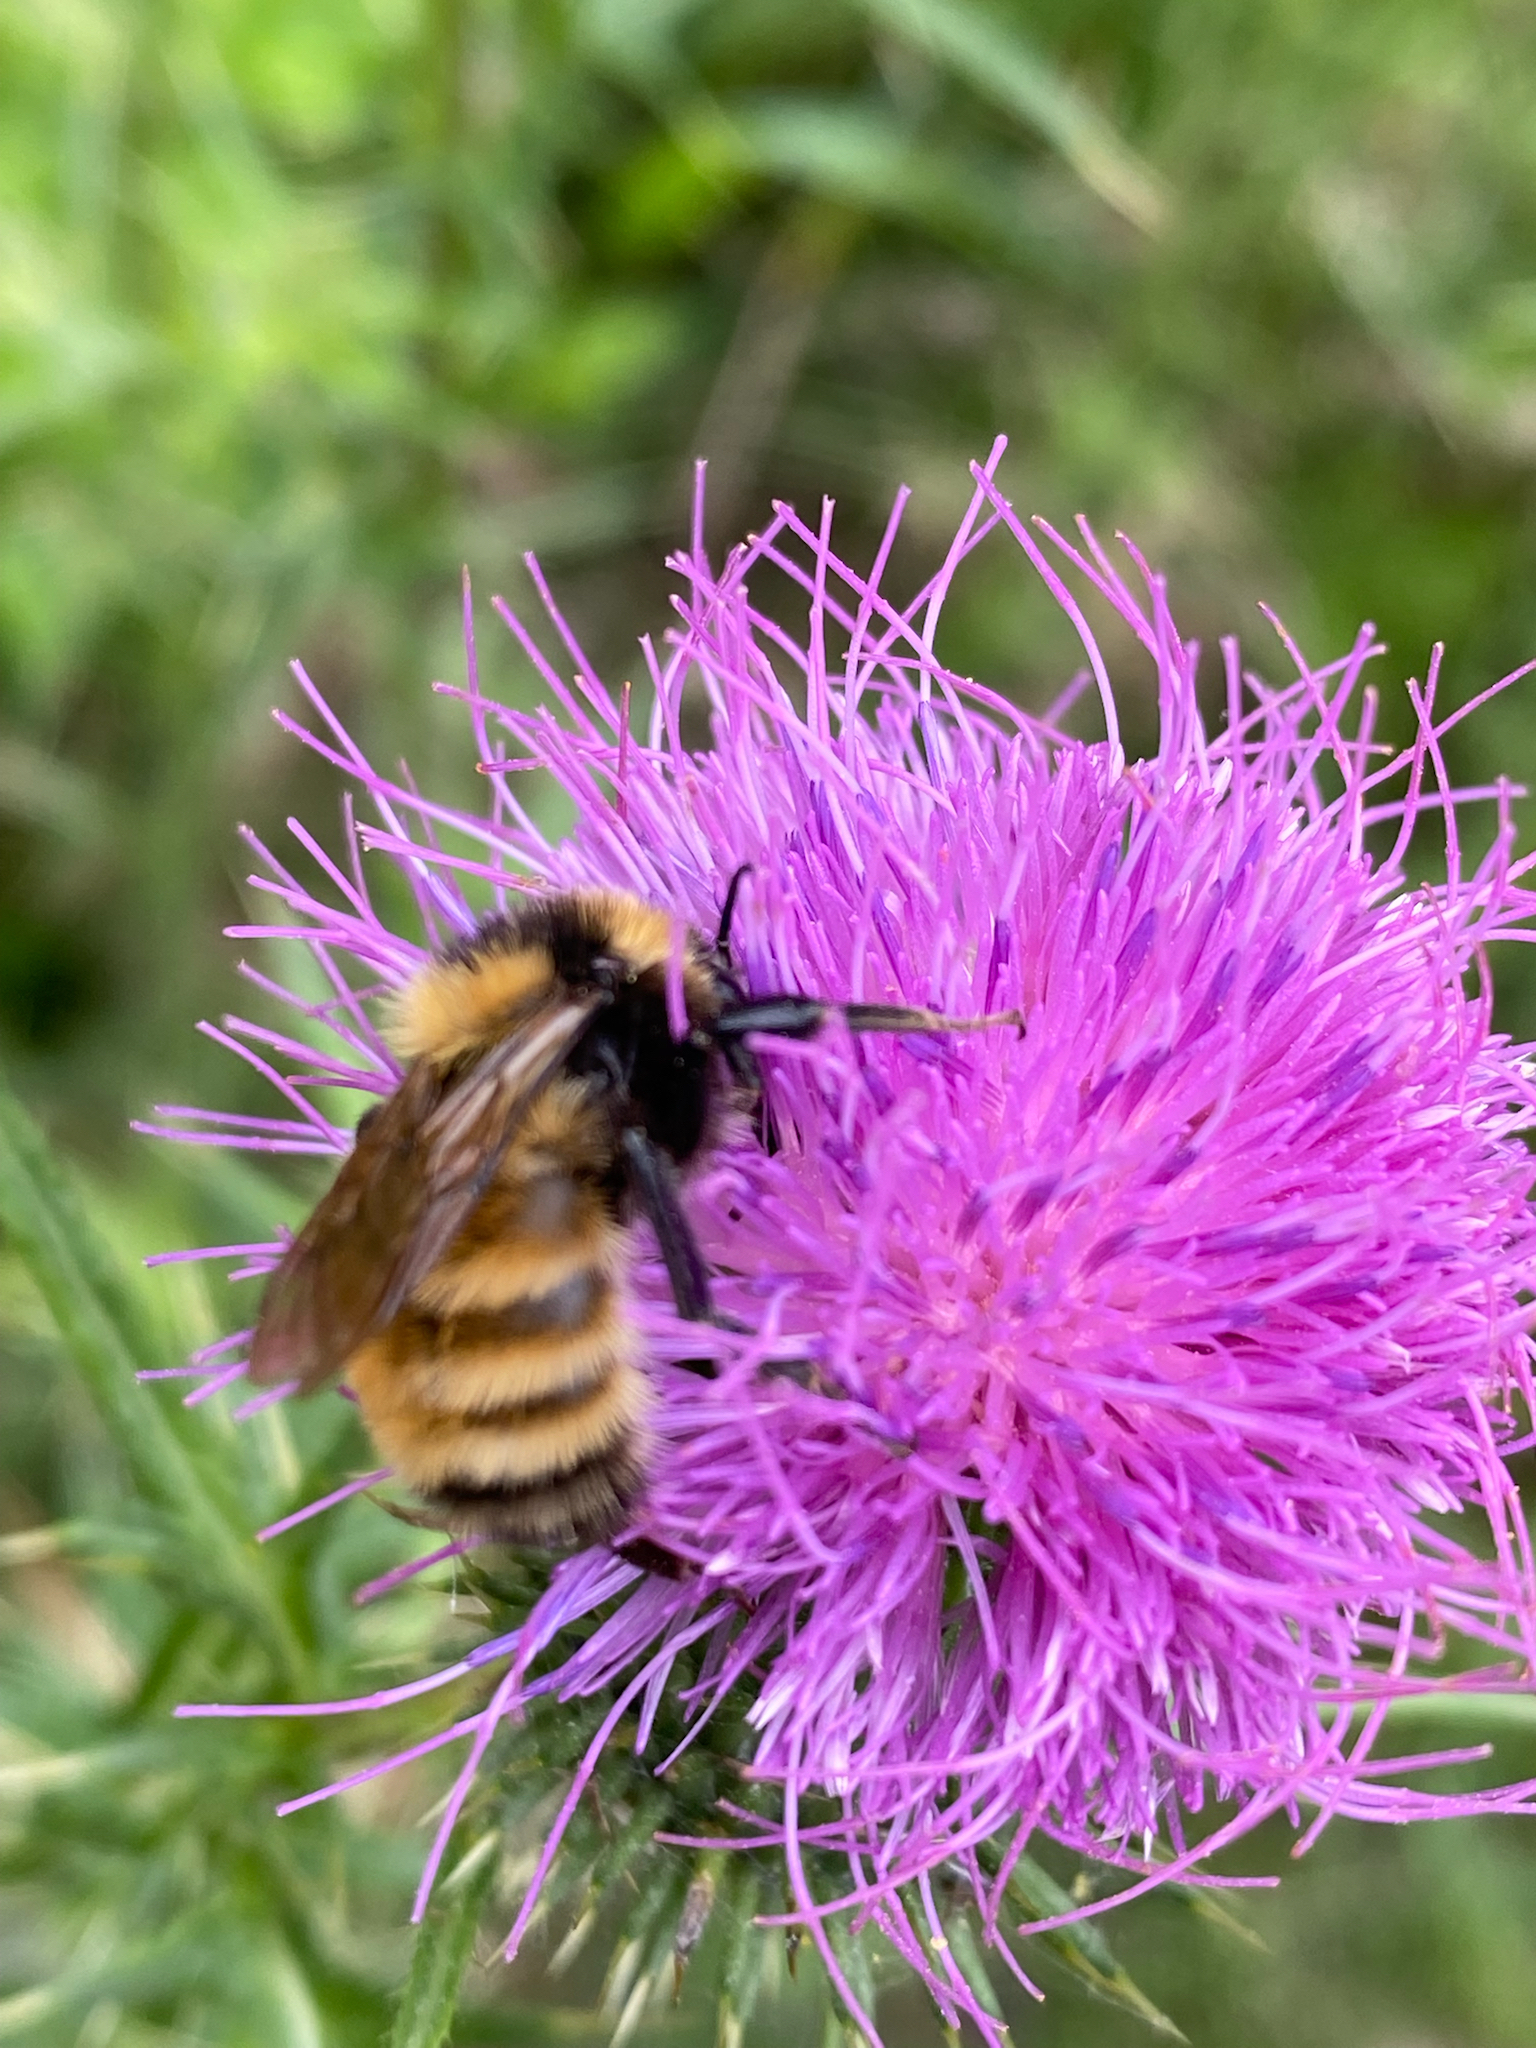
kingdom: Animalia
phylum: Arthropoda
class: Insecta
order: Hymenoptera
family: Apidae
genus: Bombus
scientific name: Bombus borealis
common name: Northern amber bumble bee
